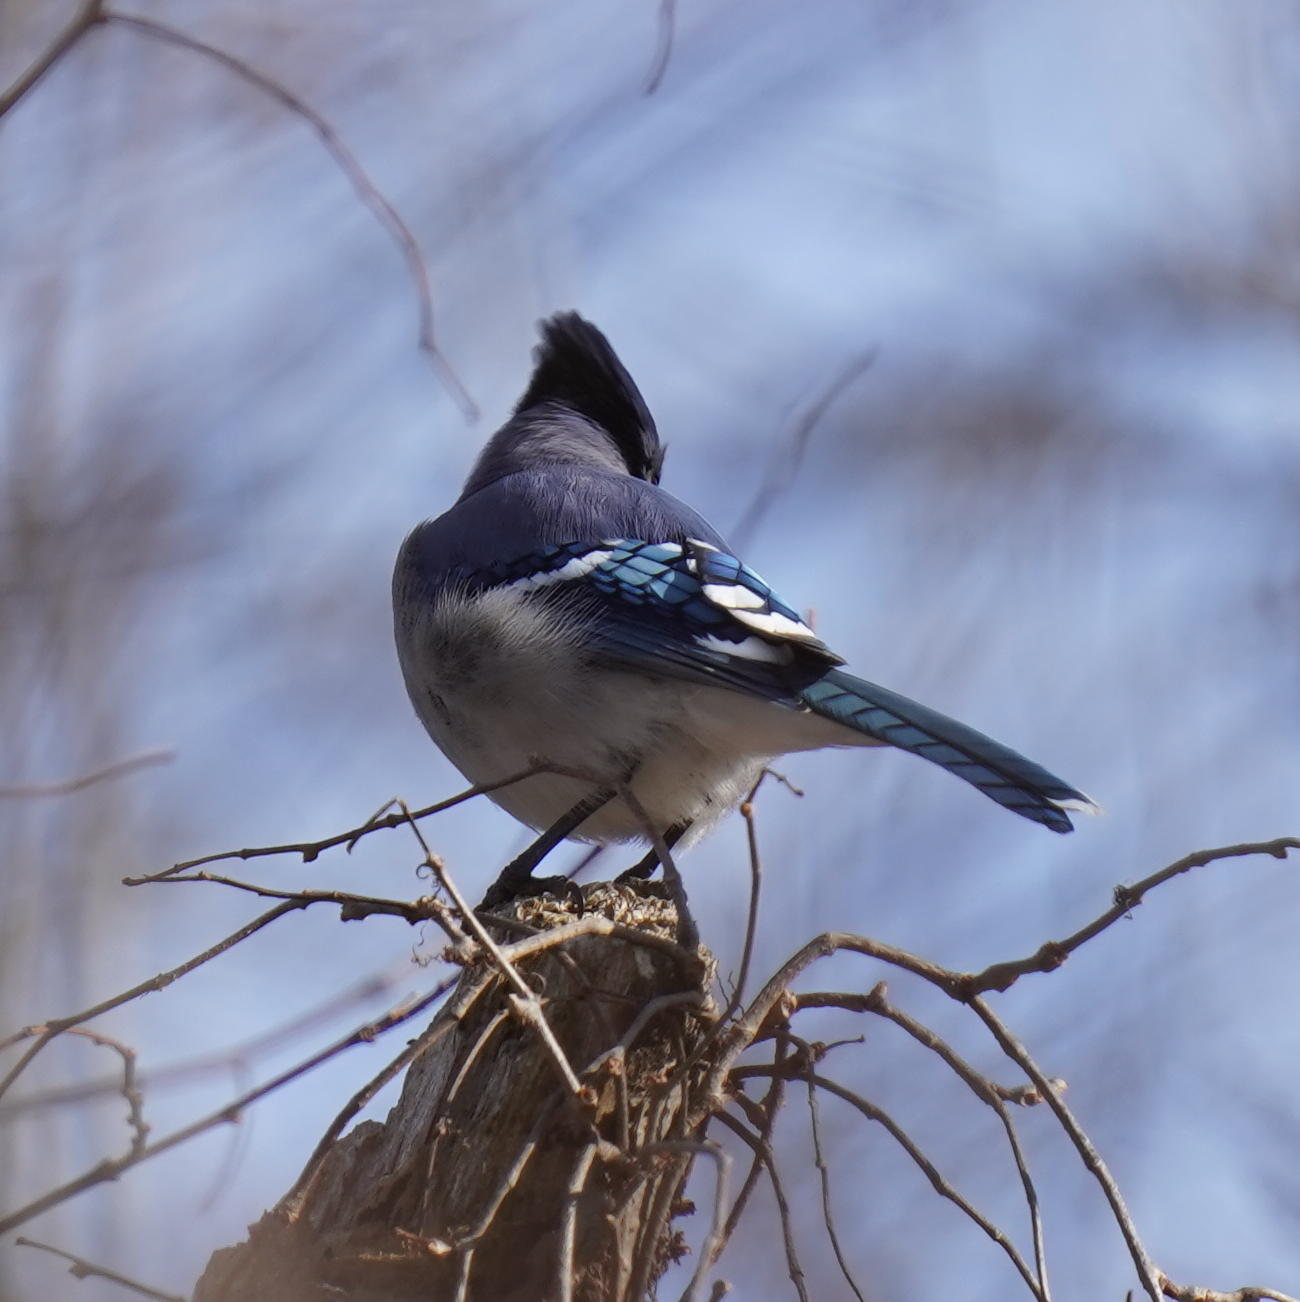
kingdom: Animalia
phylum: Chordata
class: Aves
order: Passeriformes
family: Corvidae
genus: Cyanocitta
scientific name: Cyanocitta cristata
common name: Blue jay
